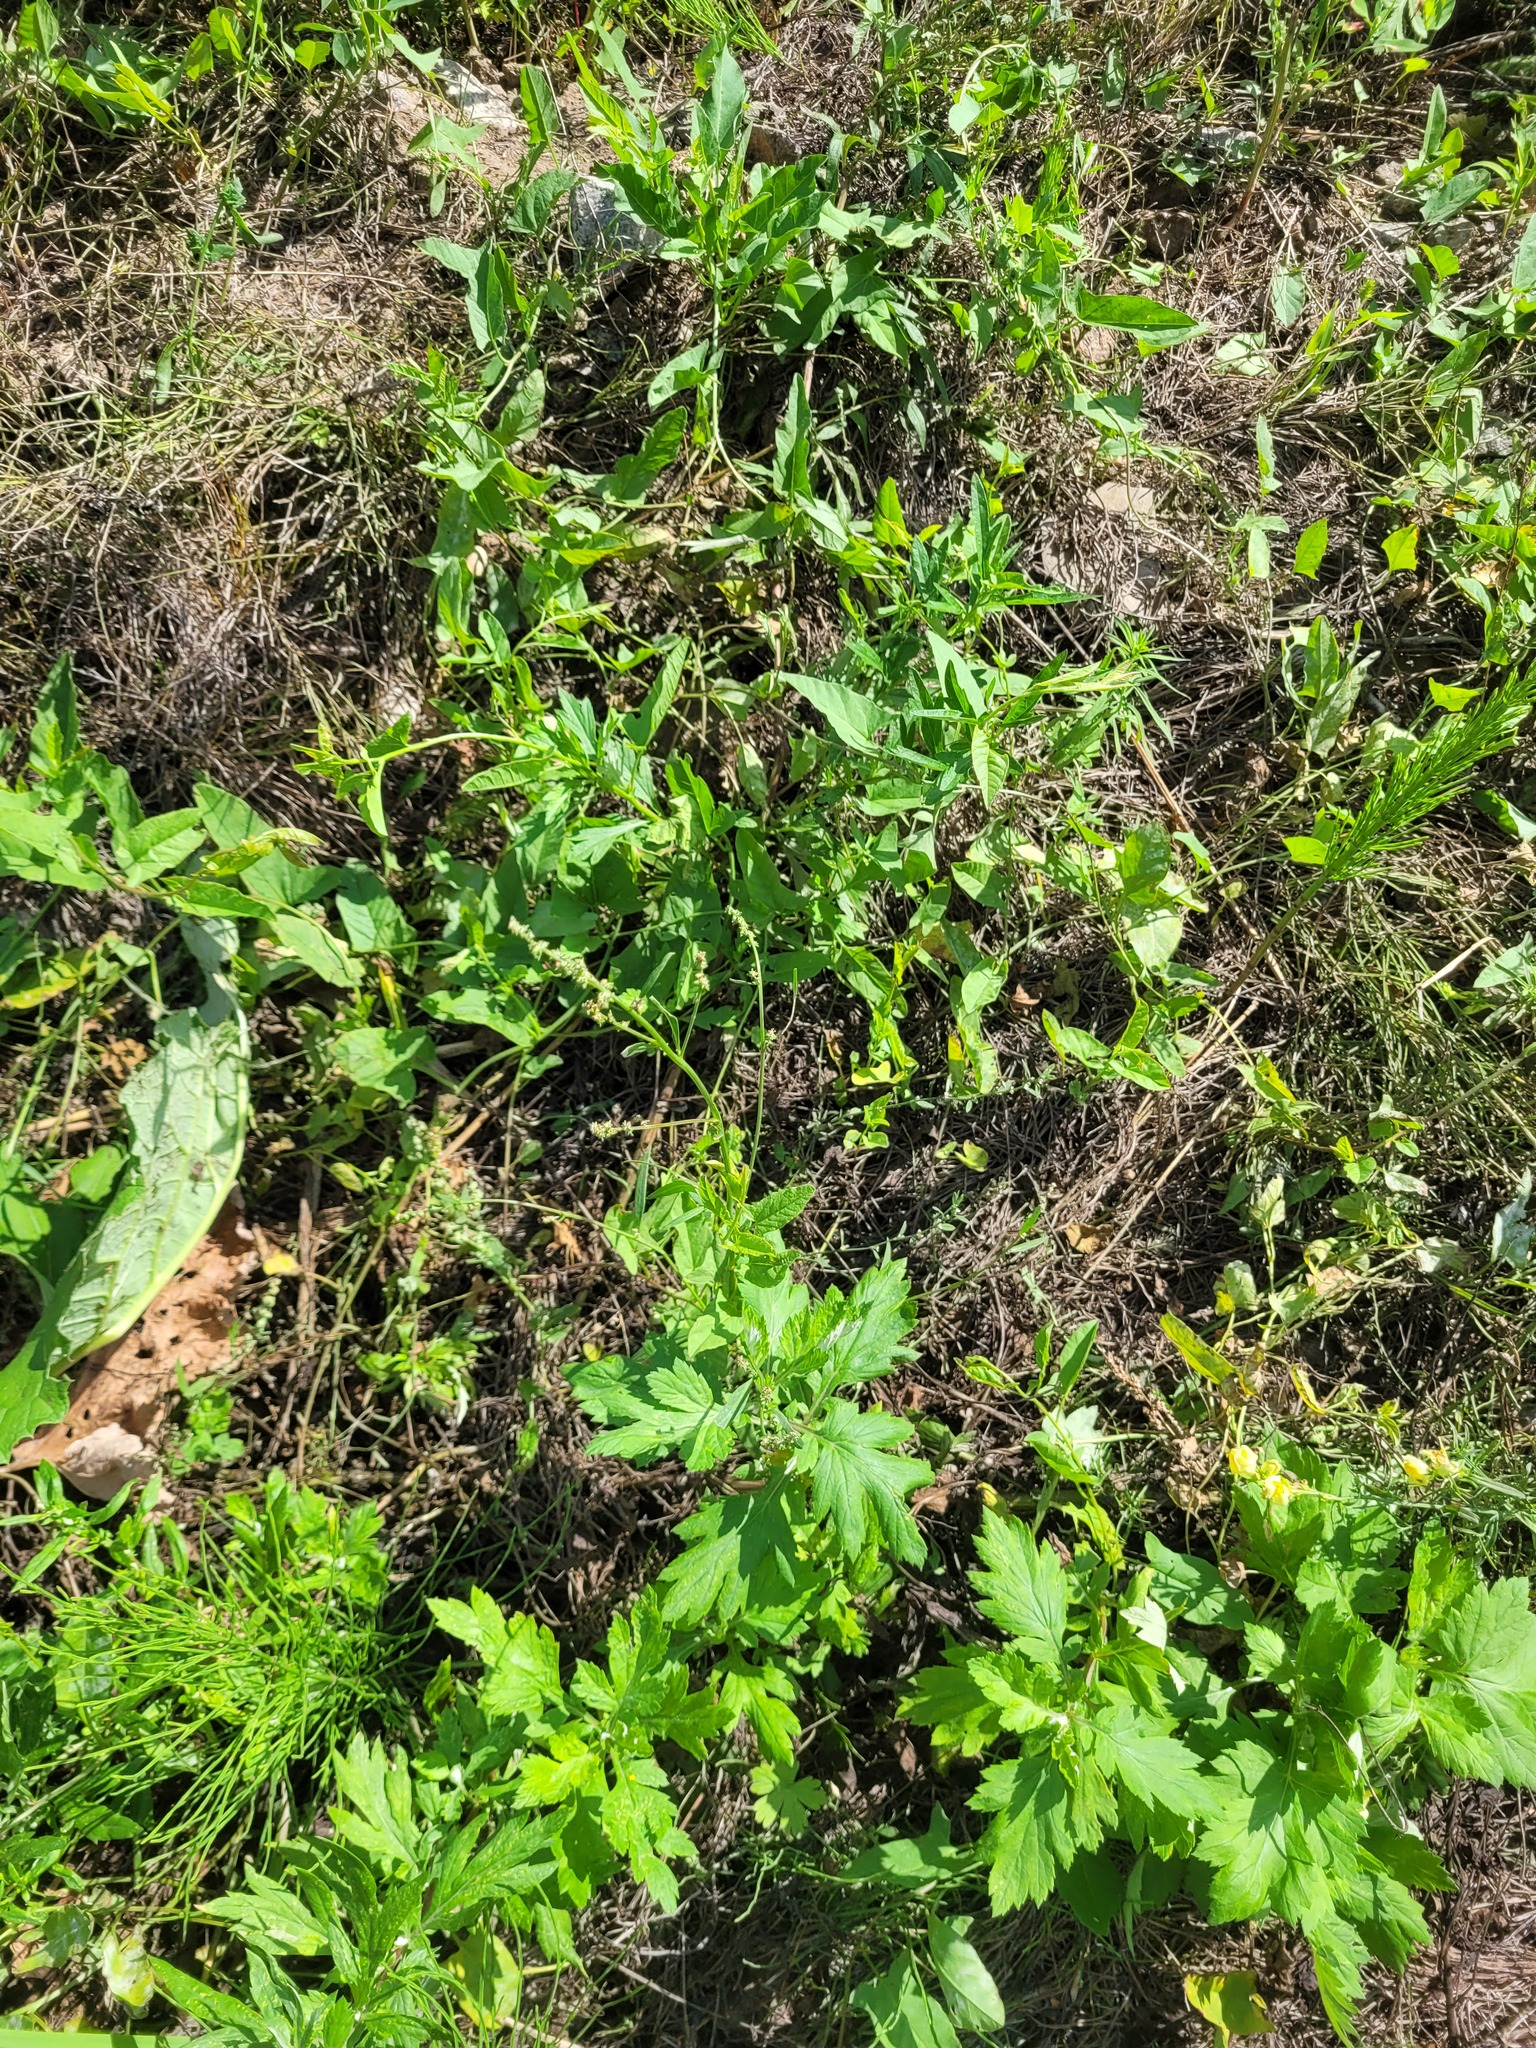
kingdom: Plantae
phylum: Tracheophyta
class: Magnoliopsida
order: Caryophyllales
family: Amaranthaceae
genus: Atriplex
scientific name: Atriplex patula
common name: Common orache
